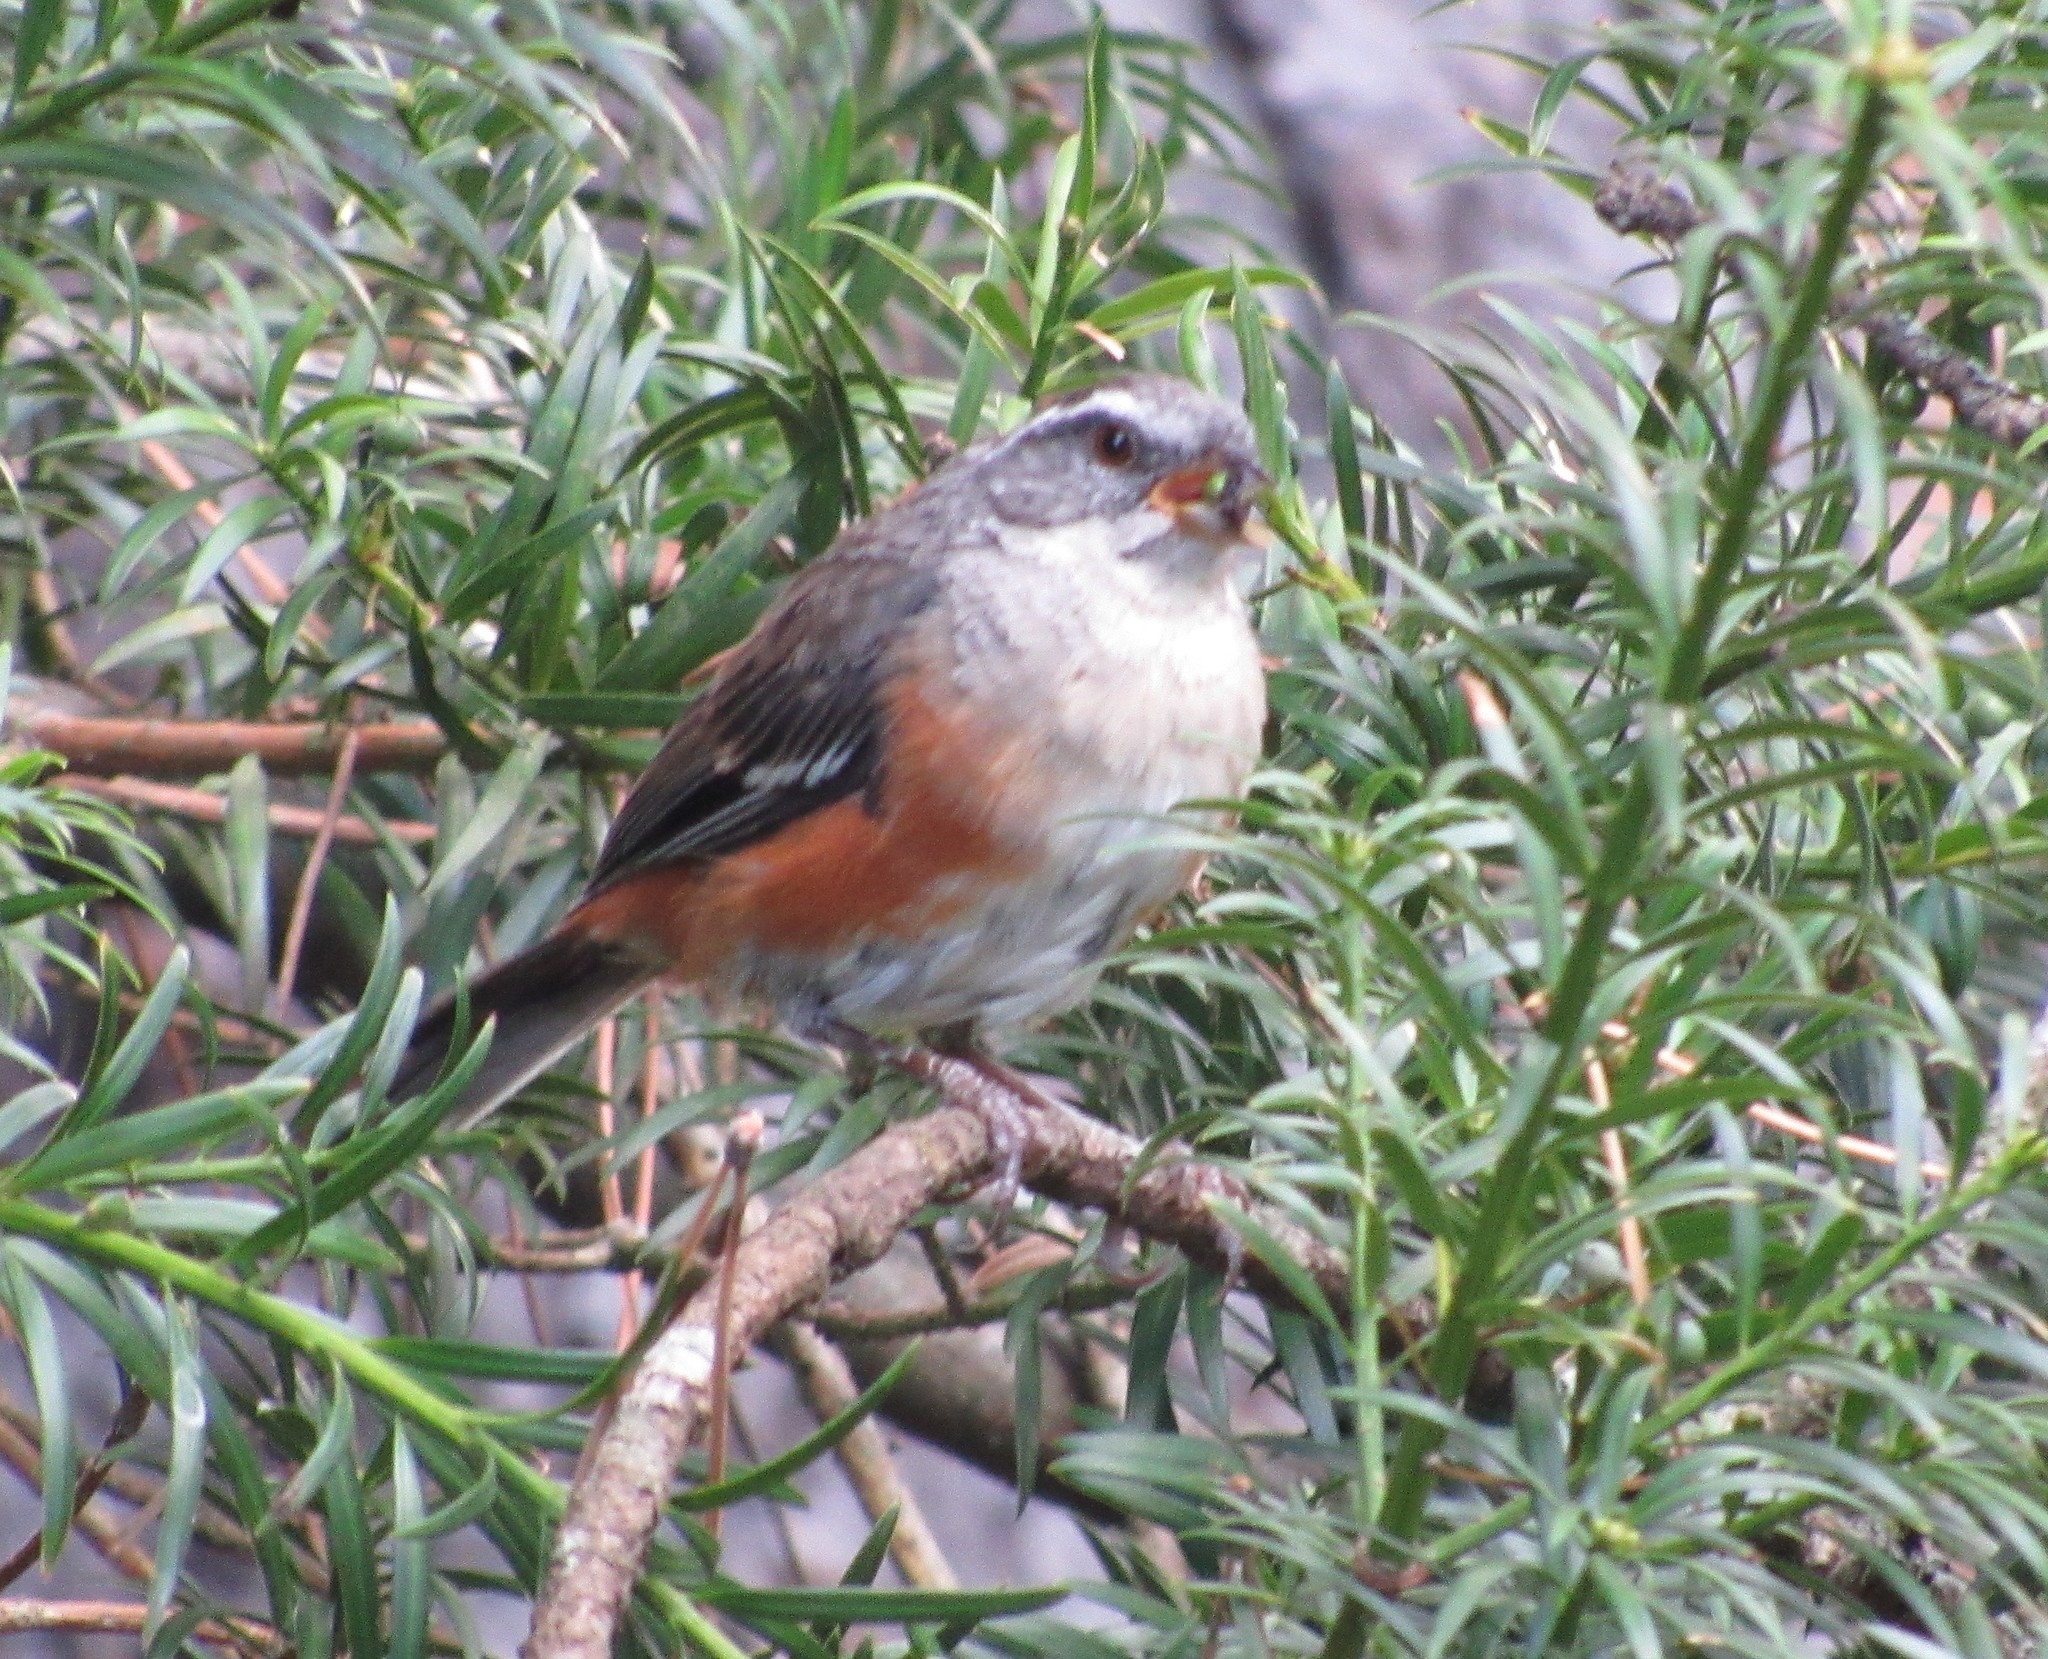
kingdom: Animalia
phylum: Chordata
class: Aves
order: Passeriformes
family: Thraupidae
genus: Microspingus
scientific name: Microspingus cabanisi
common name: Gray-throated warbling-finch
